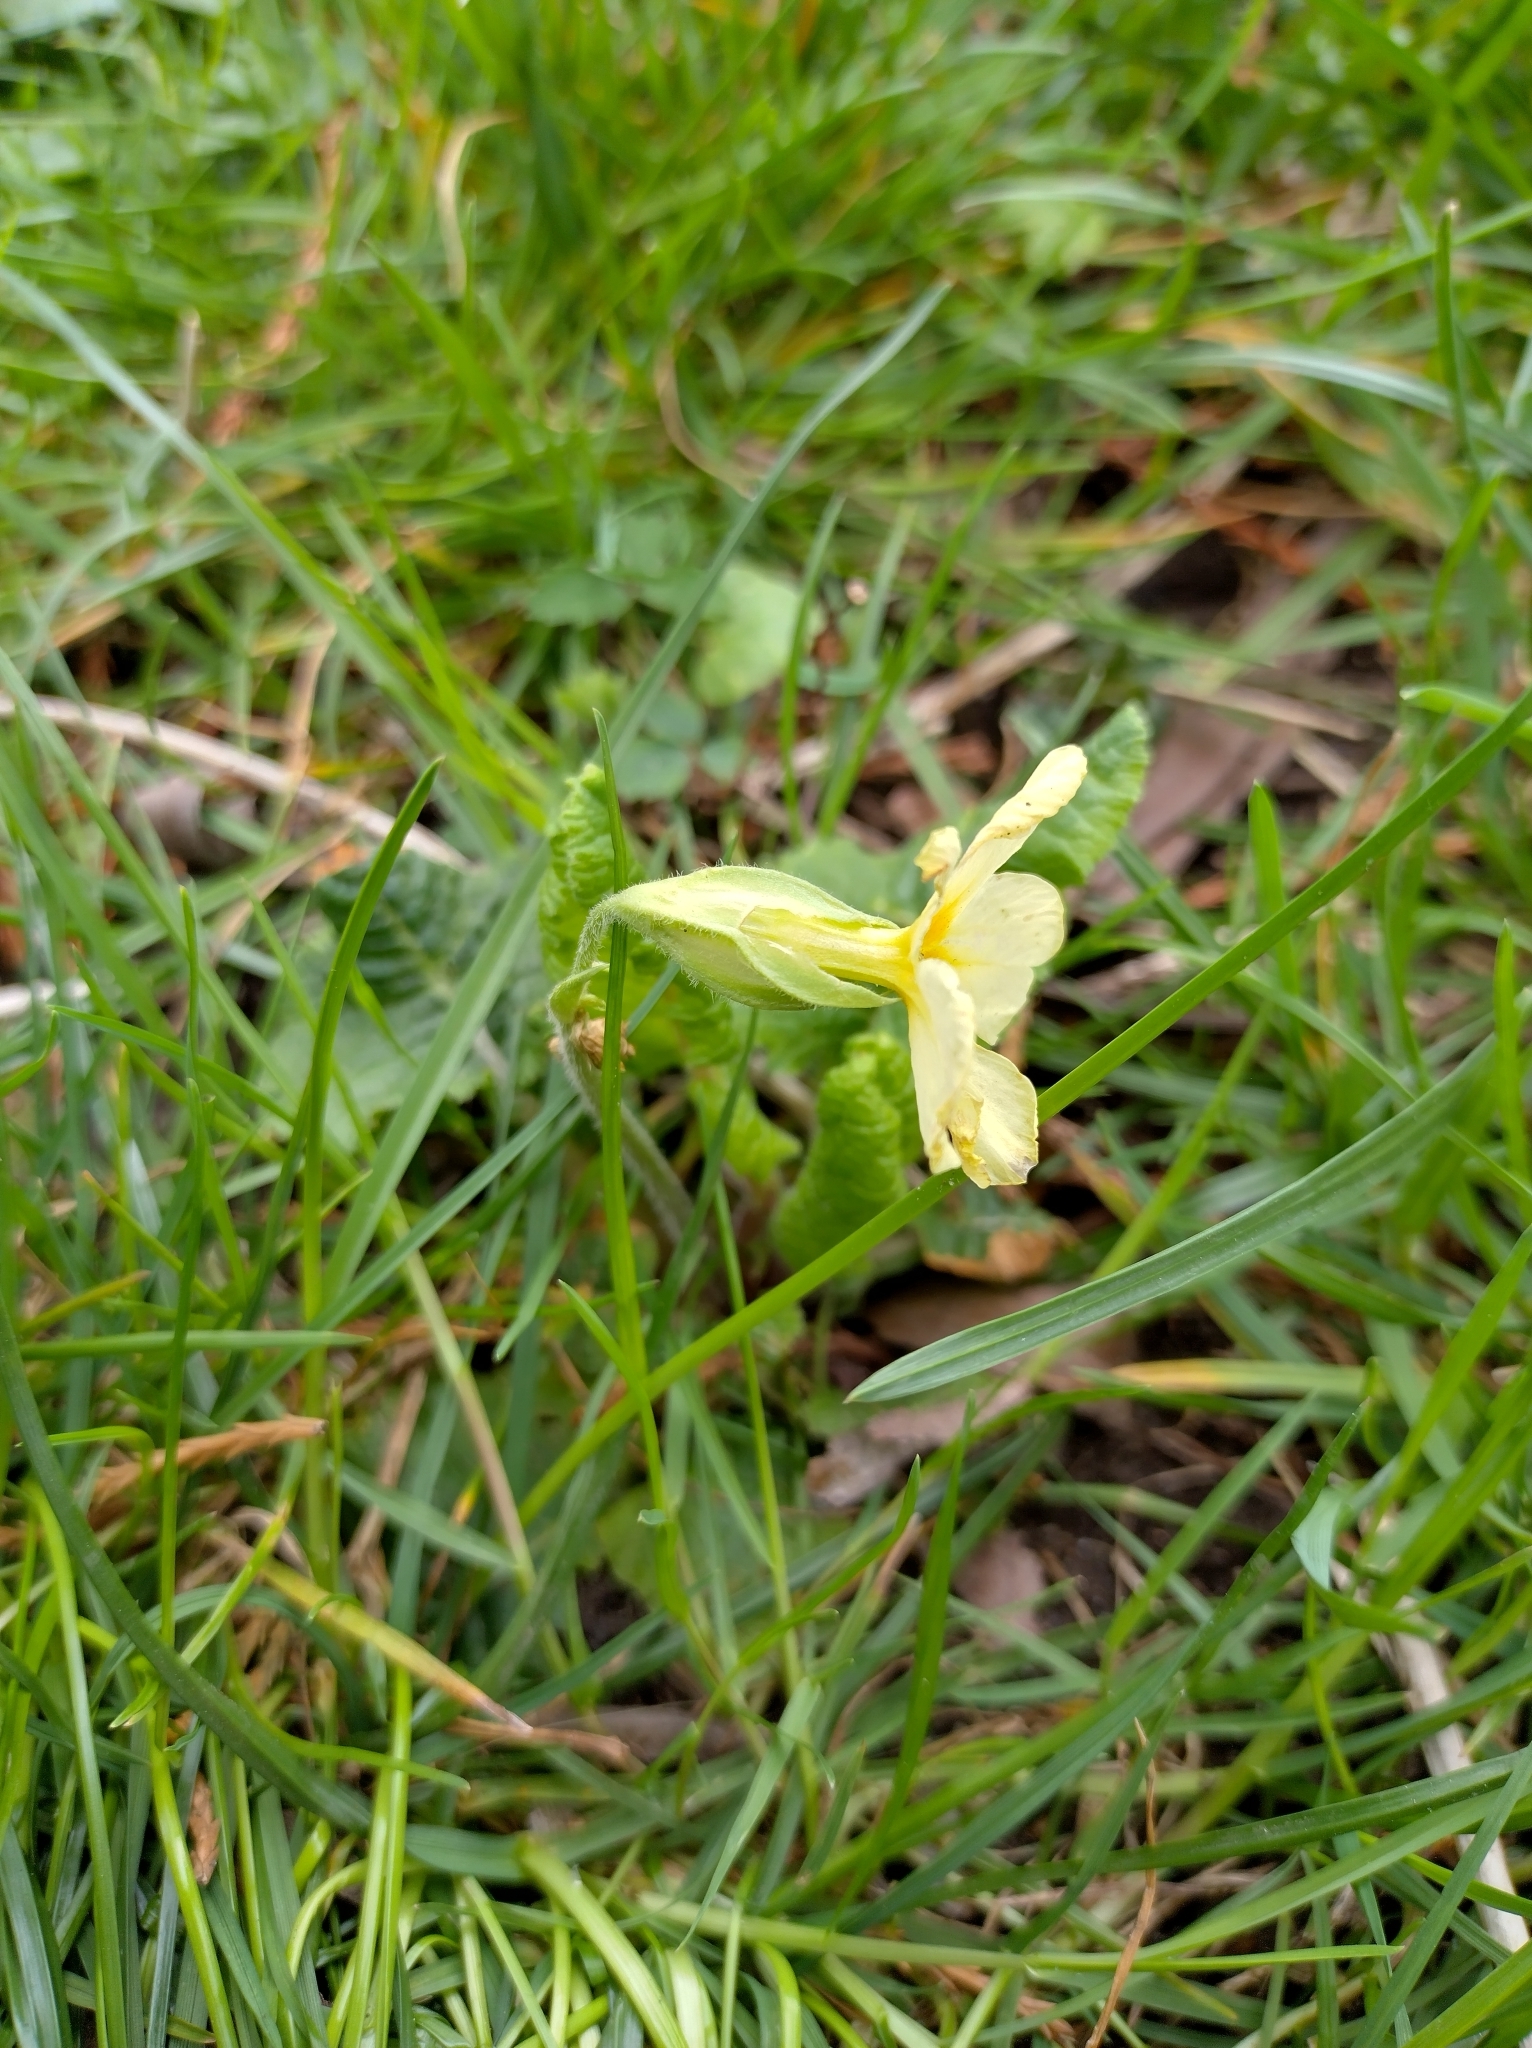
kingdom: Plantae
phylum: Tracheophyta
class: Magnoliopsida
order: Ericales
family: Primulaceae
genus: Primula
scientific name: Primula vulgaris
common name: Primrose
